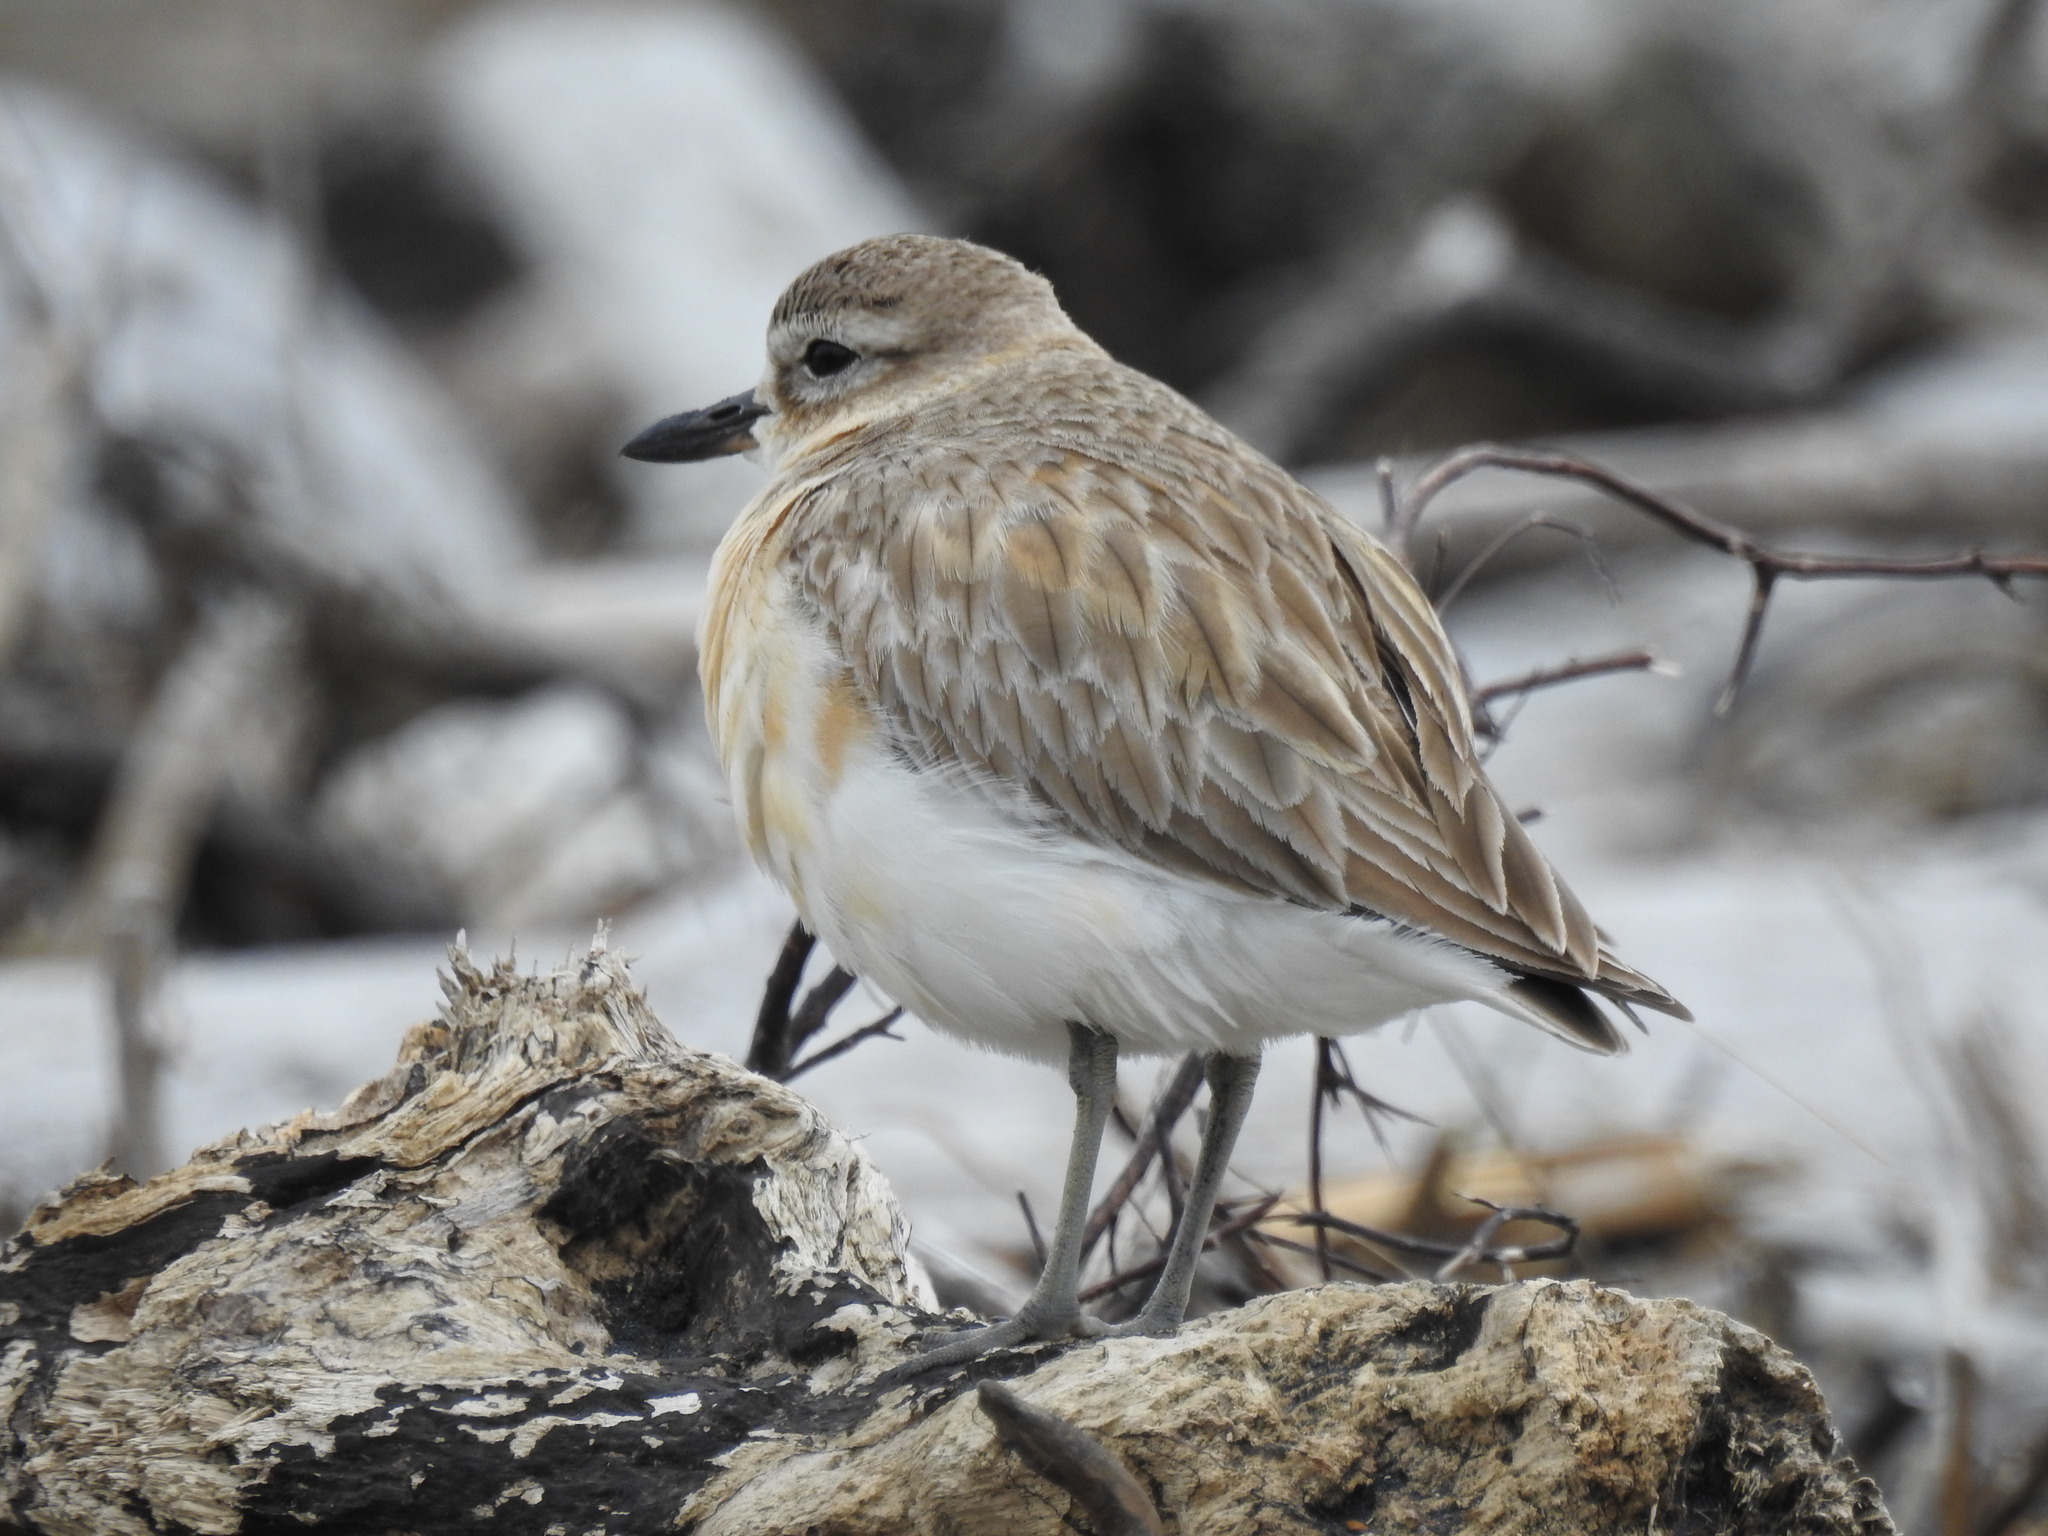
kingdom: Animalia
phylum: Chordata
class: Aves
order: Charadriiformes
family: Charadriidae
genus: Anarhynchus
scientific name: Anarhynchus
